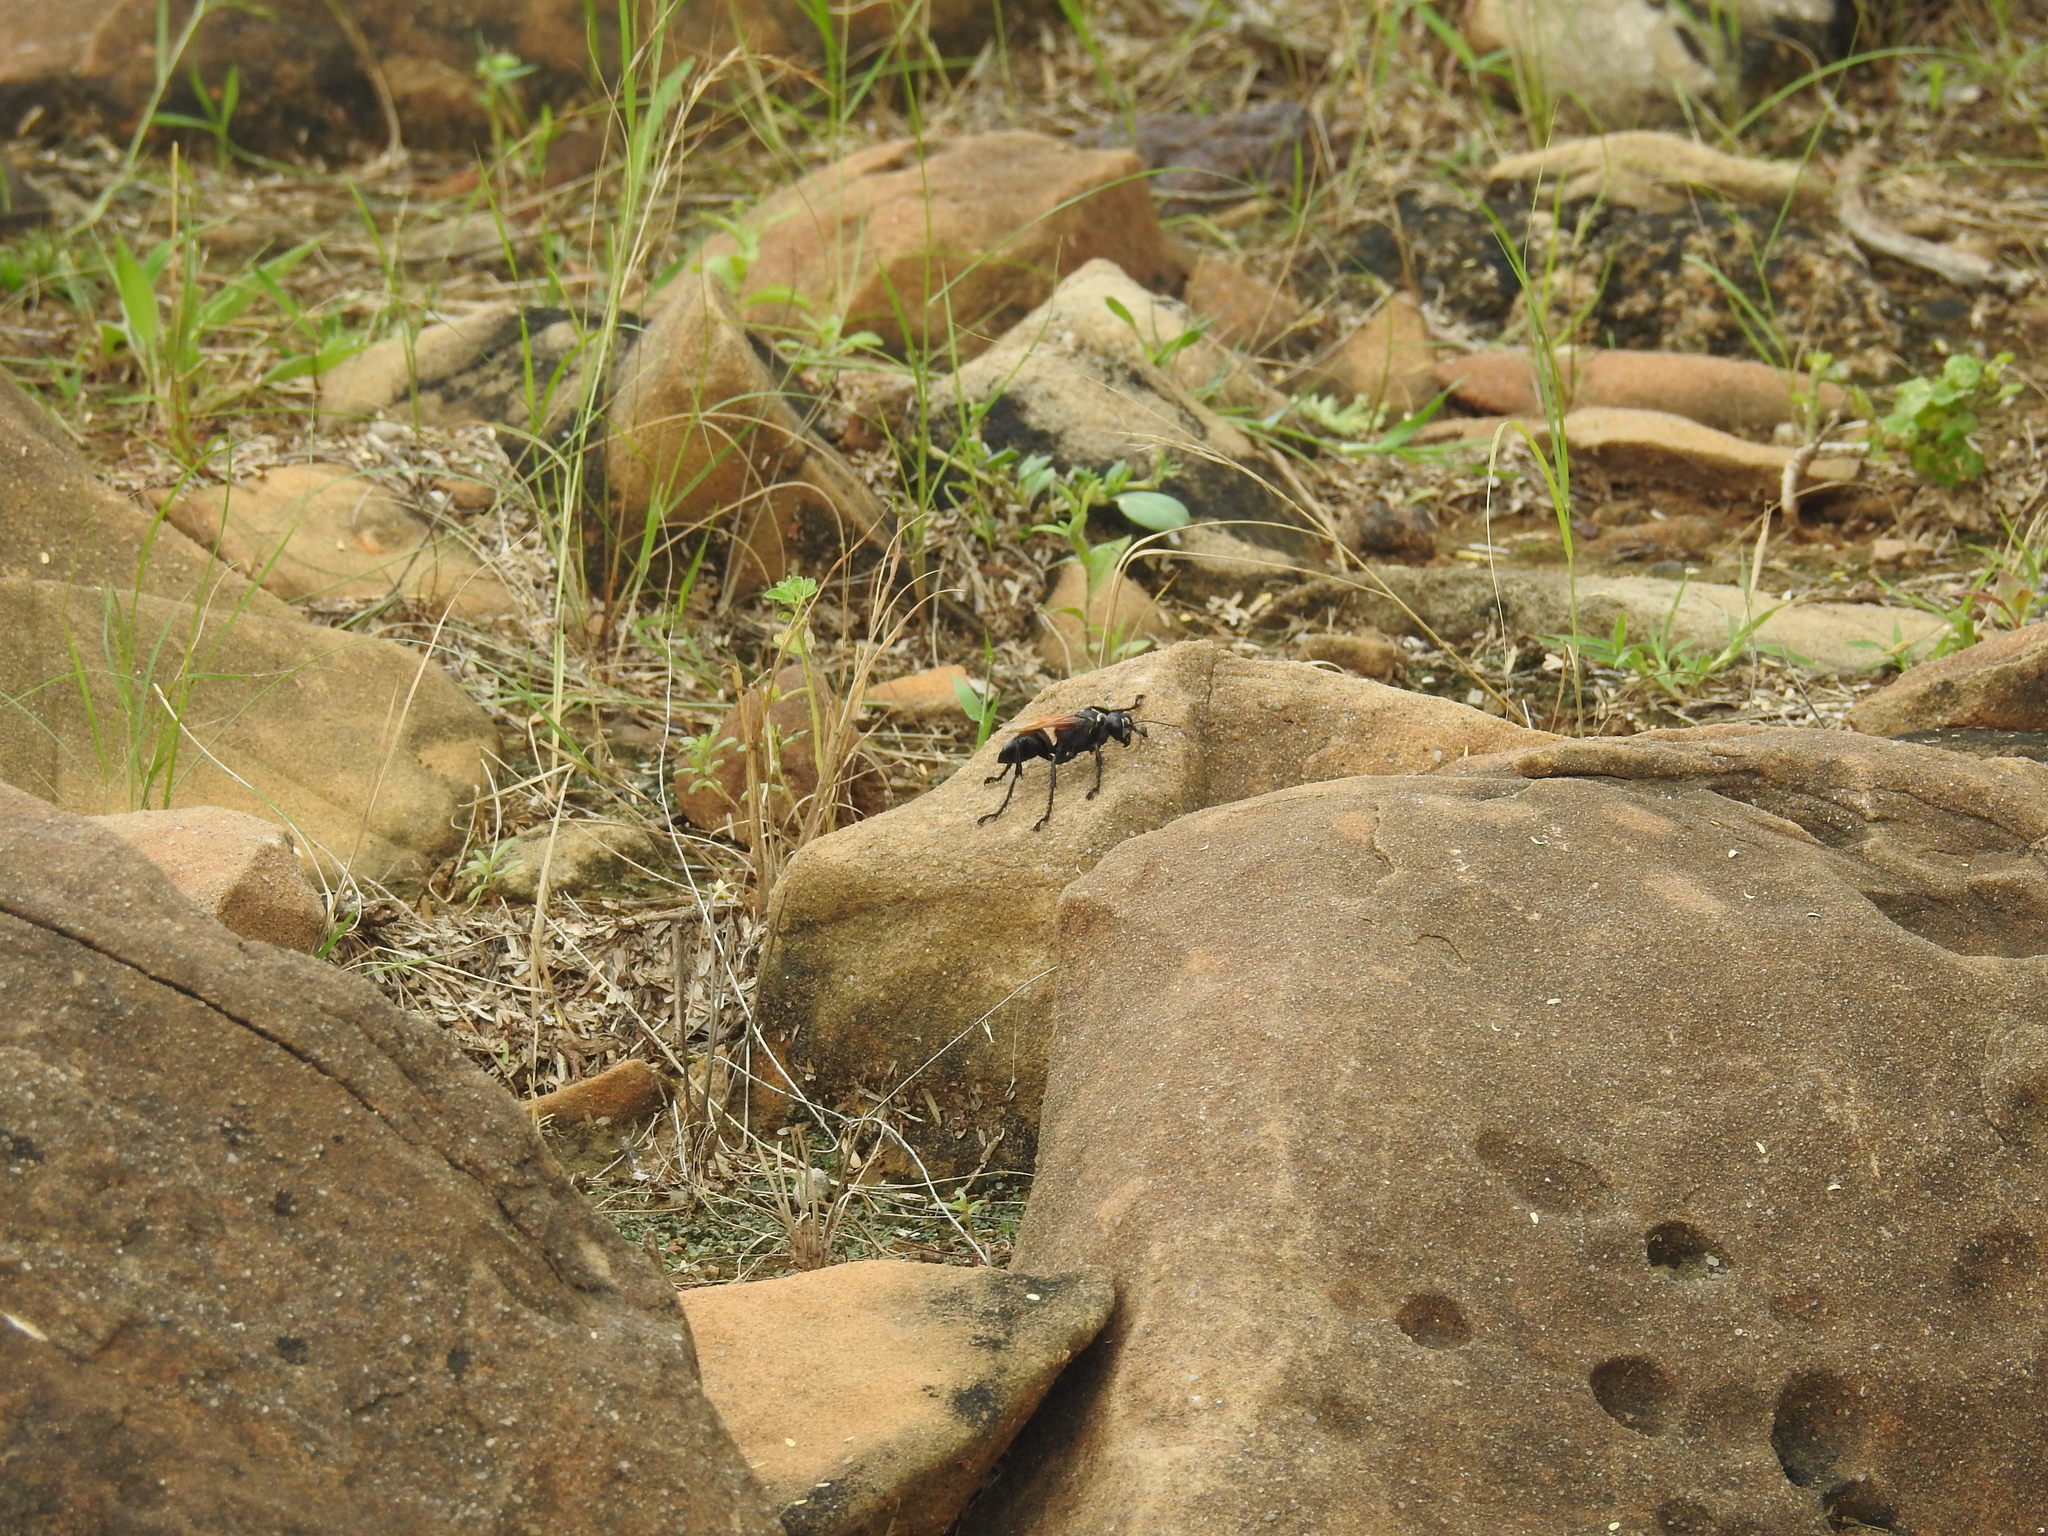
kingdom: Animalia
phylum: Arthropoda
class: Insecta
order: Hymenoptera
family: Sphecidae
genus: Prionyx
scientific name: Prionyx crudelis
